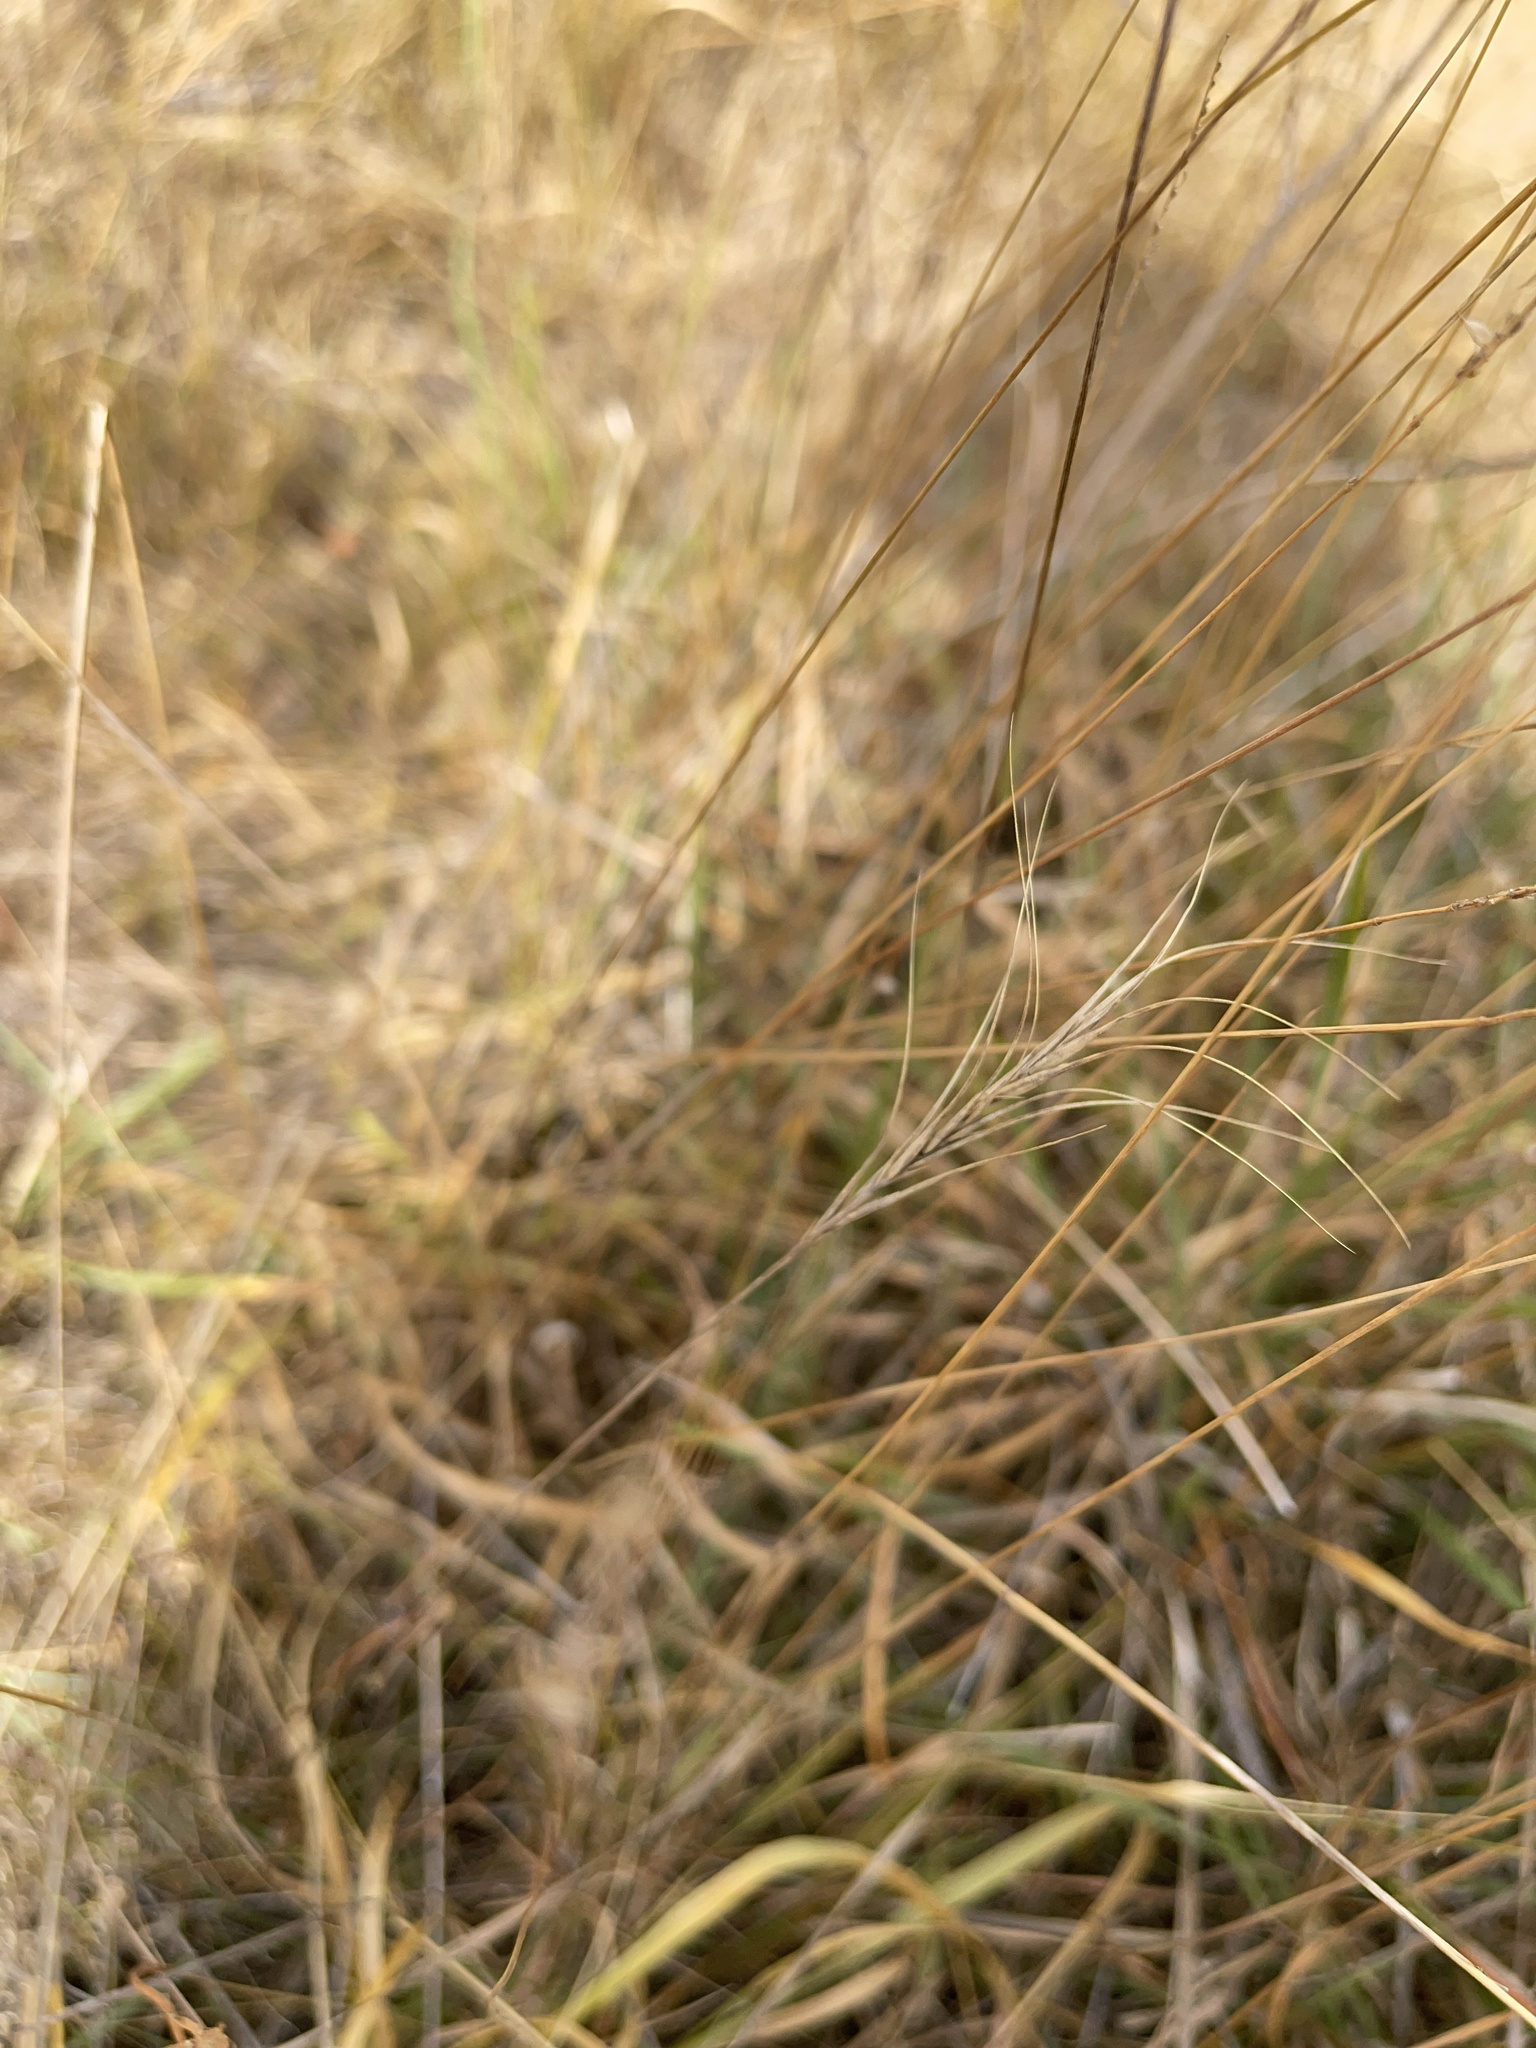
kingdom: Plantae
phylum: Tracheophyta
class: Liliopsida
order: Poales
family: Poaceae
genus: Anthosachne
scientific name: Anthosachne scabra
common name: Common wheatgrass
